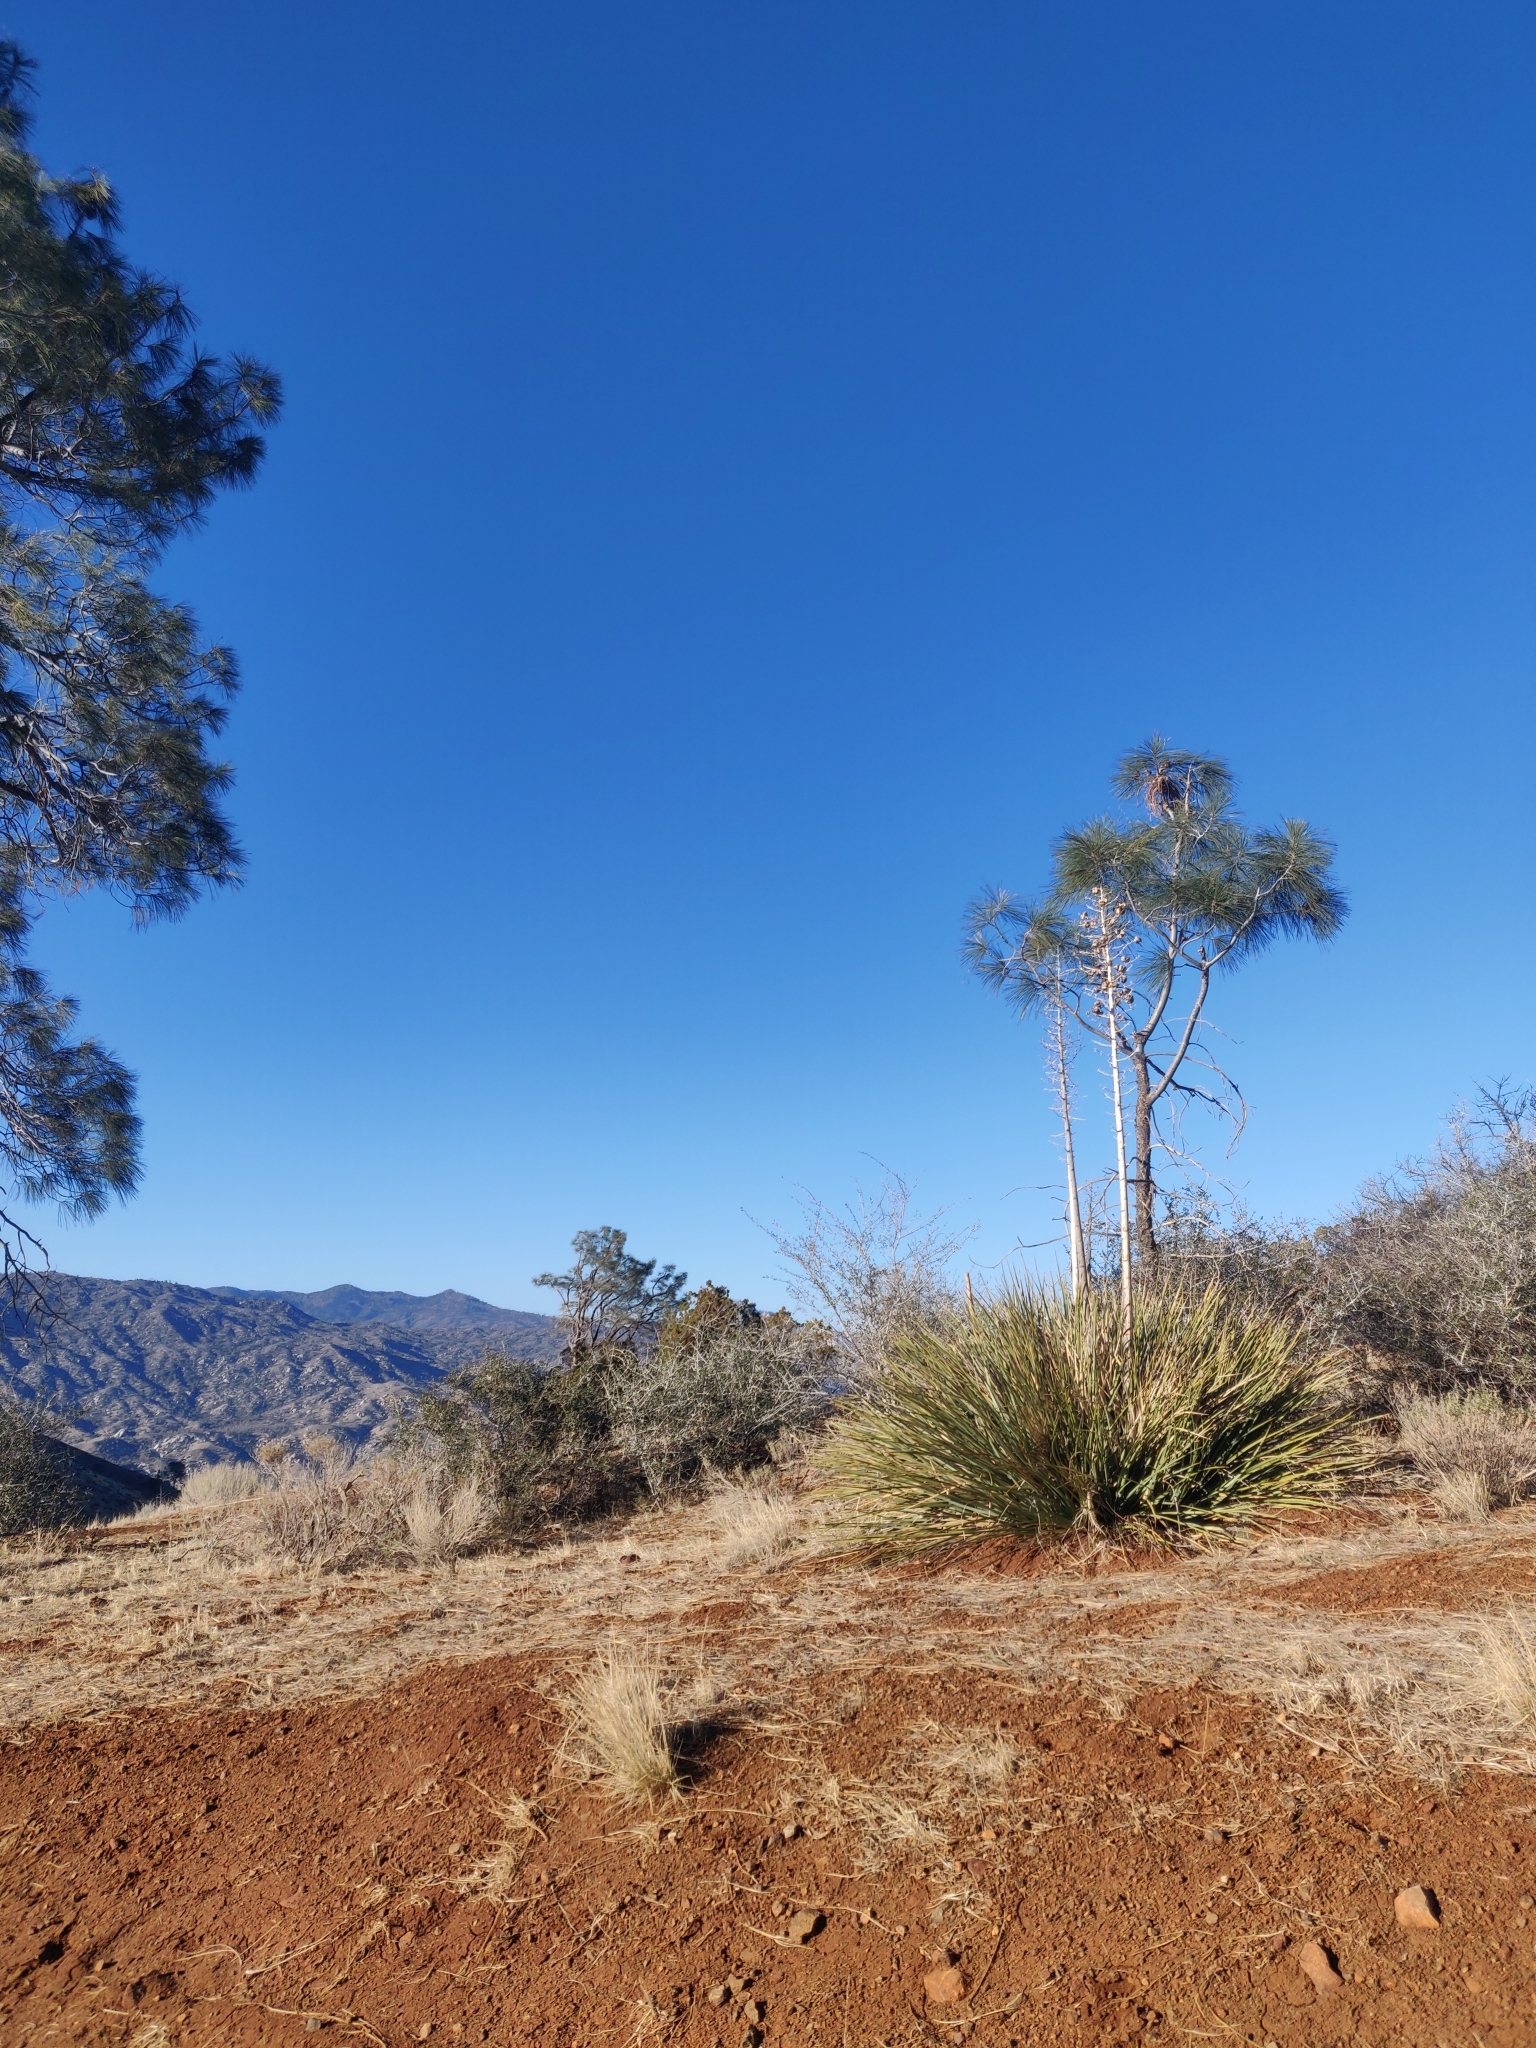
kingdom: Plantae
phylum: Tracheophyta
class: Liliopsida
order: Asparagales
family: Asparagaceae
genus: Hesperoyucca
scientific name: Hesperoyucca whipplei
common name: Our lord's-candle
